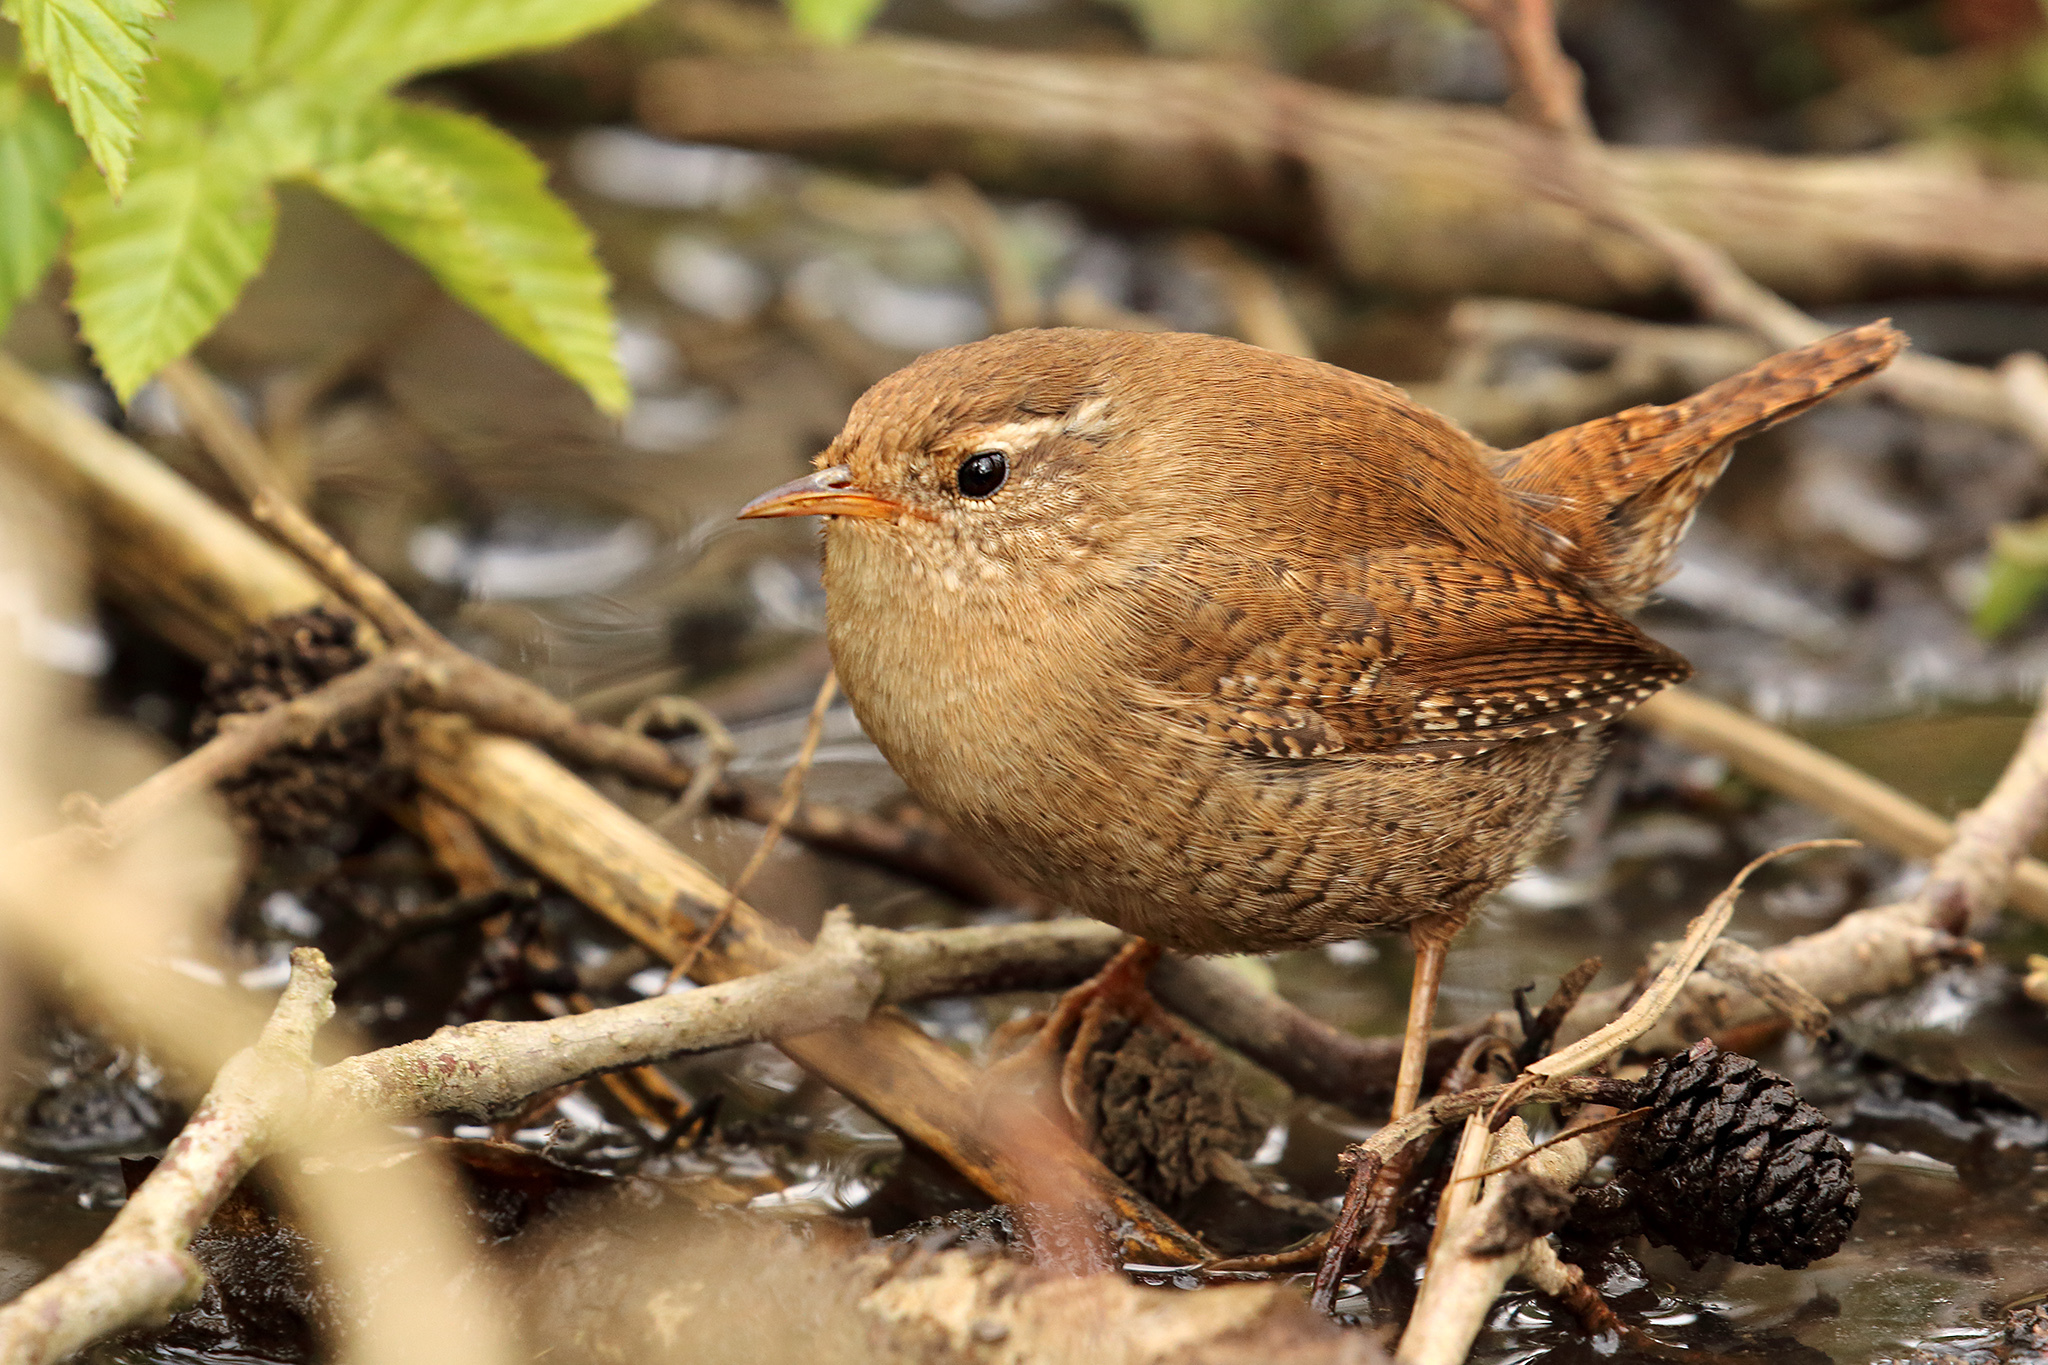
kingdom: Animalia
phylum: Chordata
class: Aves
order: Passeriformes
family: Troglodytidae
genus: Troglodytes
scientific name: Troglodytes troglodytes
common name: Eurasian wren
